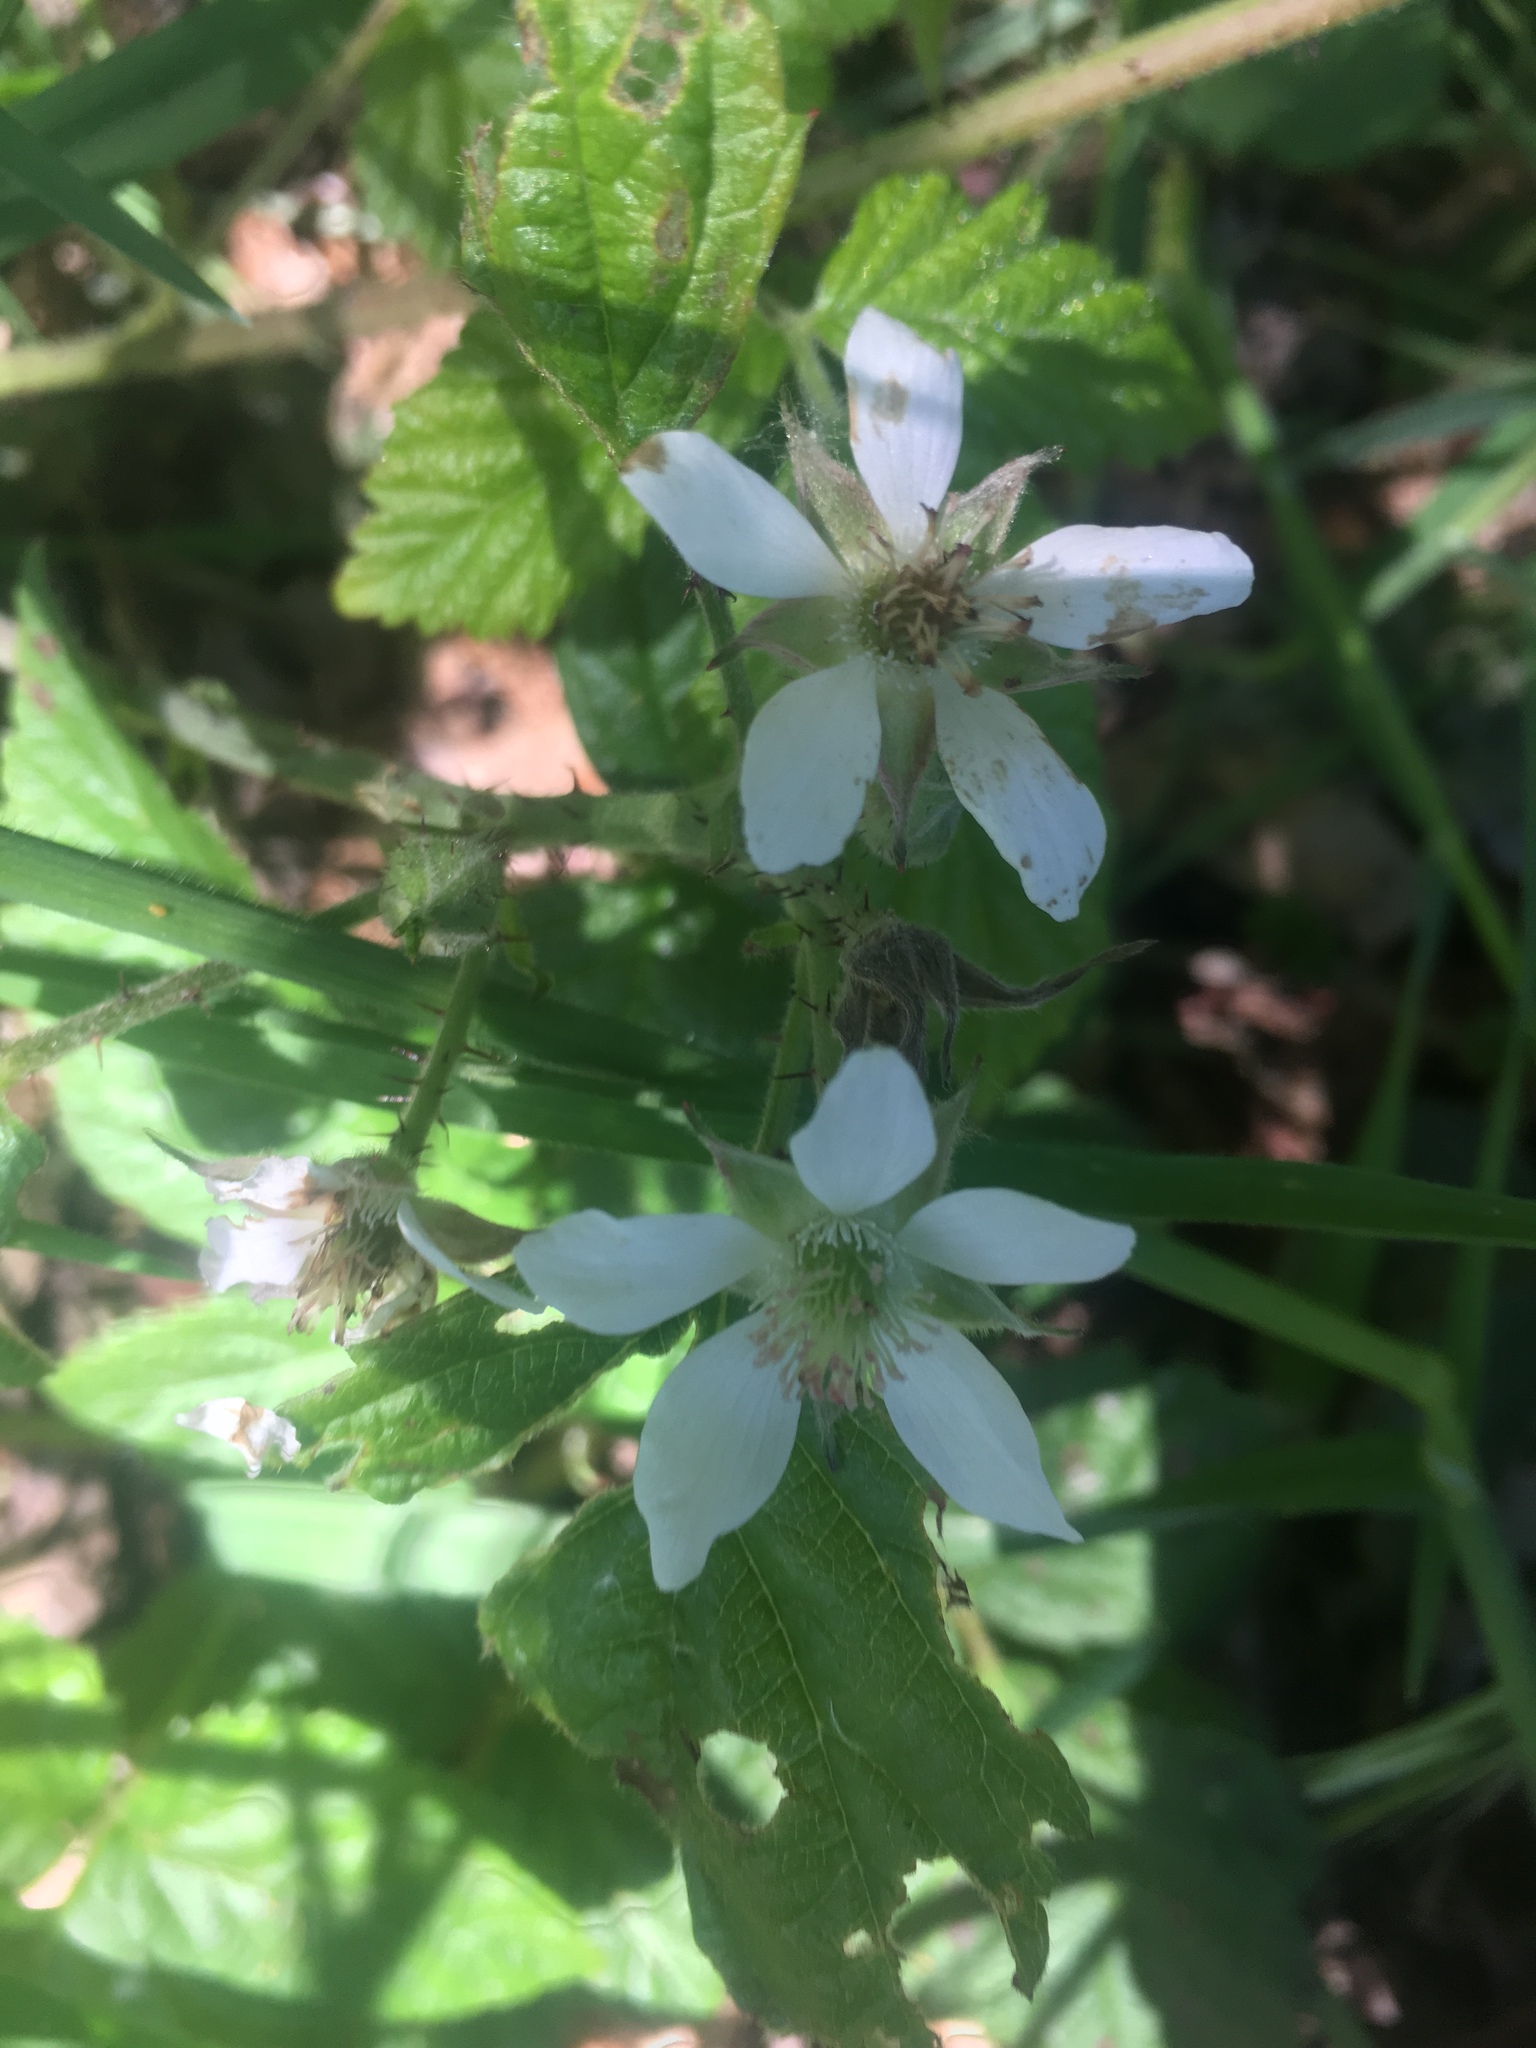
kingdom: Plantae
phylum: Tracheophyta
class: Magnoliopsida
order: Rosales
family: Rosaceae
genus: Rubus
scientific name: Rubus ursinus
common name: Pacific blackberry
